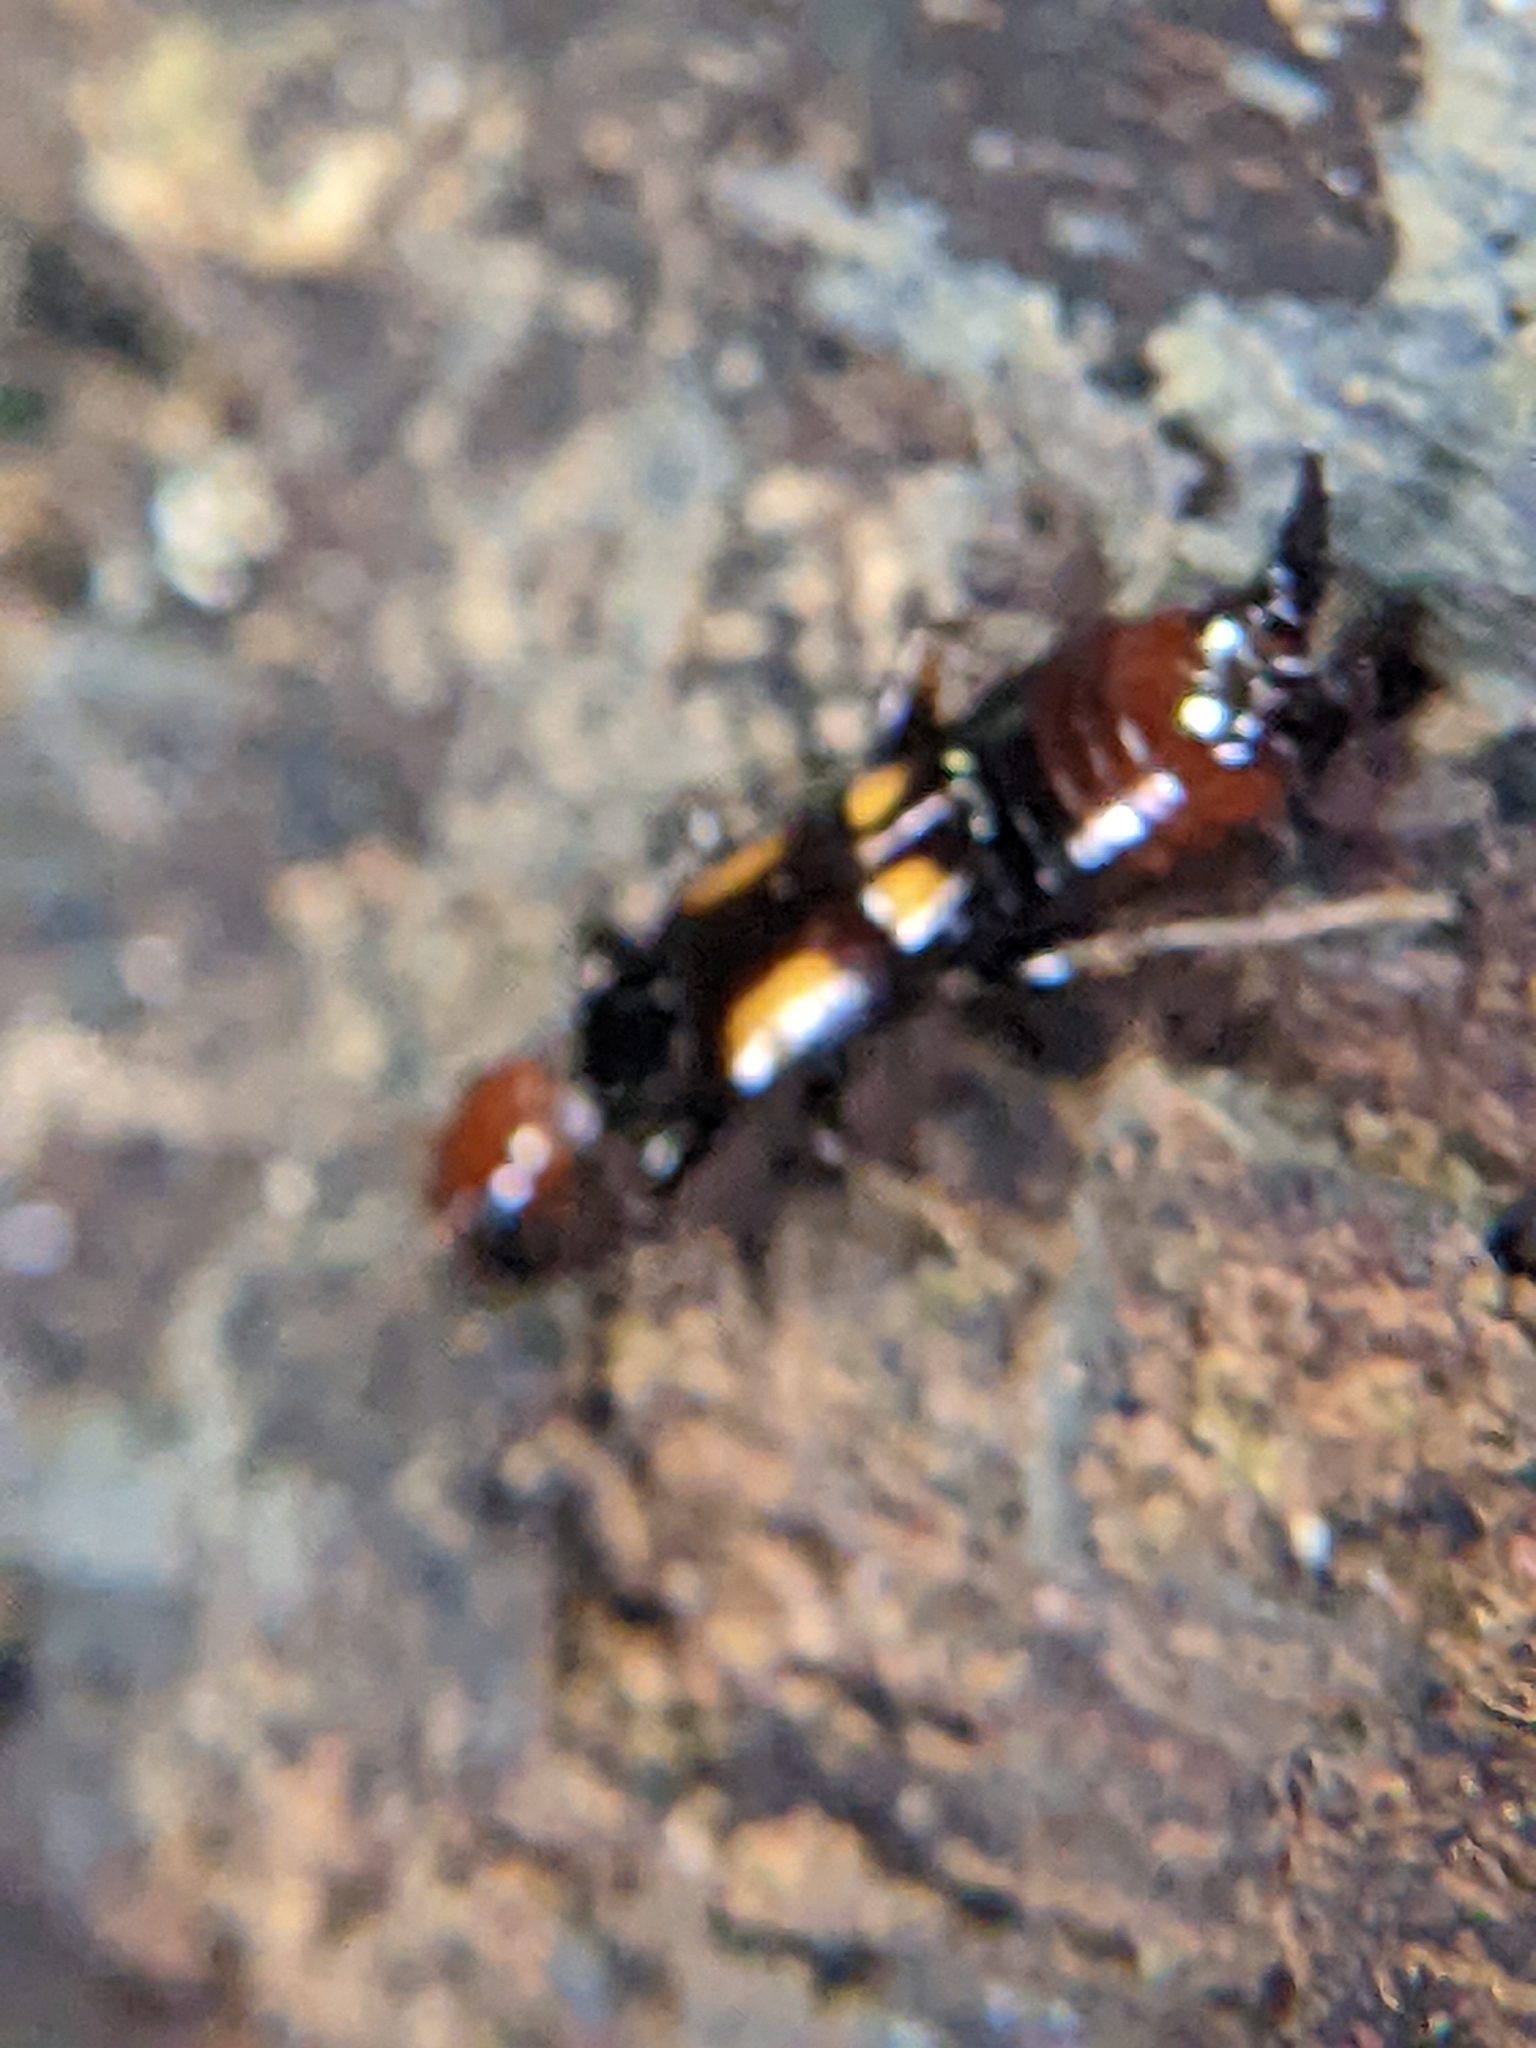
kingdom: Animalia
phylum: Arthropoda
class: Insecta
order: Dermaptera
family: Spongiphoridae
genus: Nesogaster
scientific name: Nesogaster amoenus
